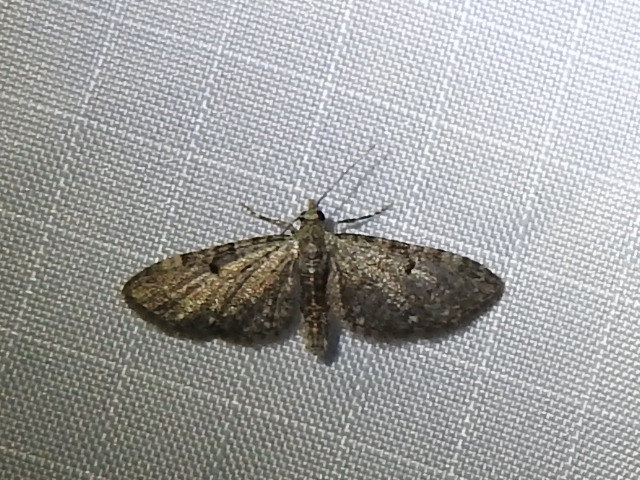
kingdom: Animalia
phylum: Arthropoda
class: Insecta
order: Lepidoptera
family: Geometridae
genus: Eupithecia
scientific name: Eupithecia miserulata
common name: Common eupithecia
